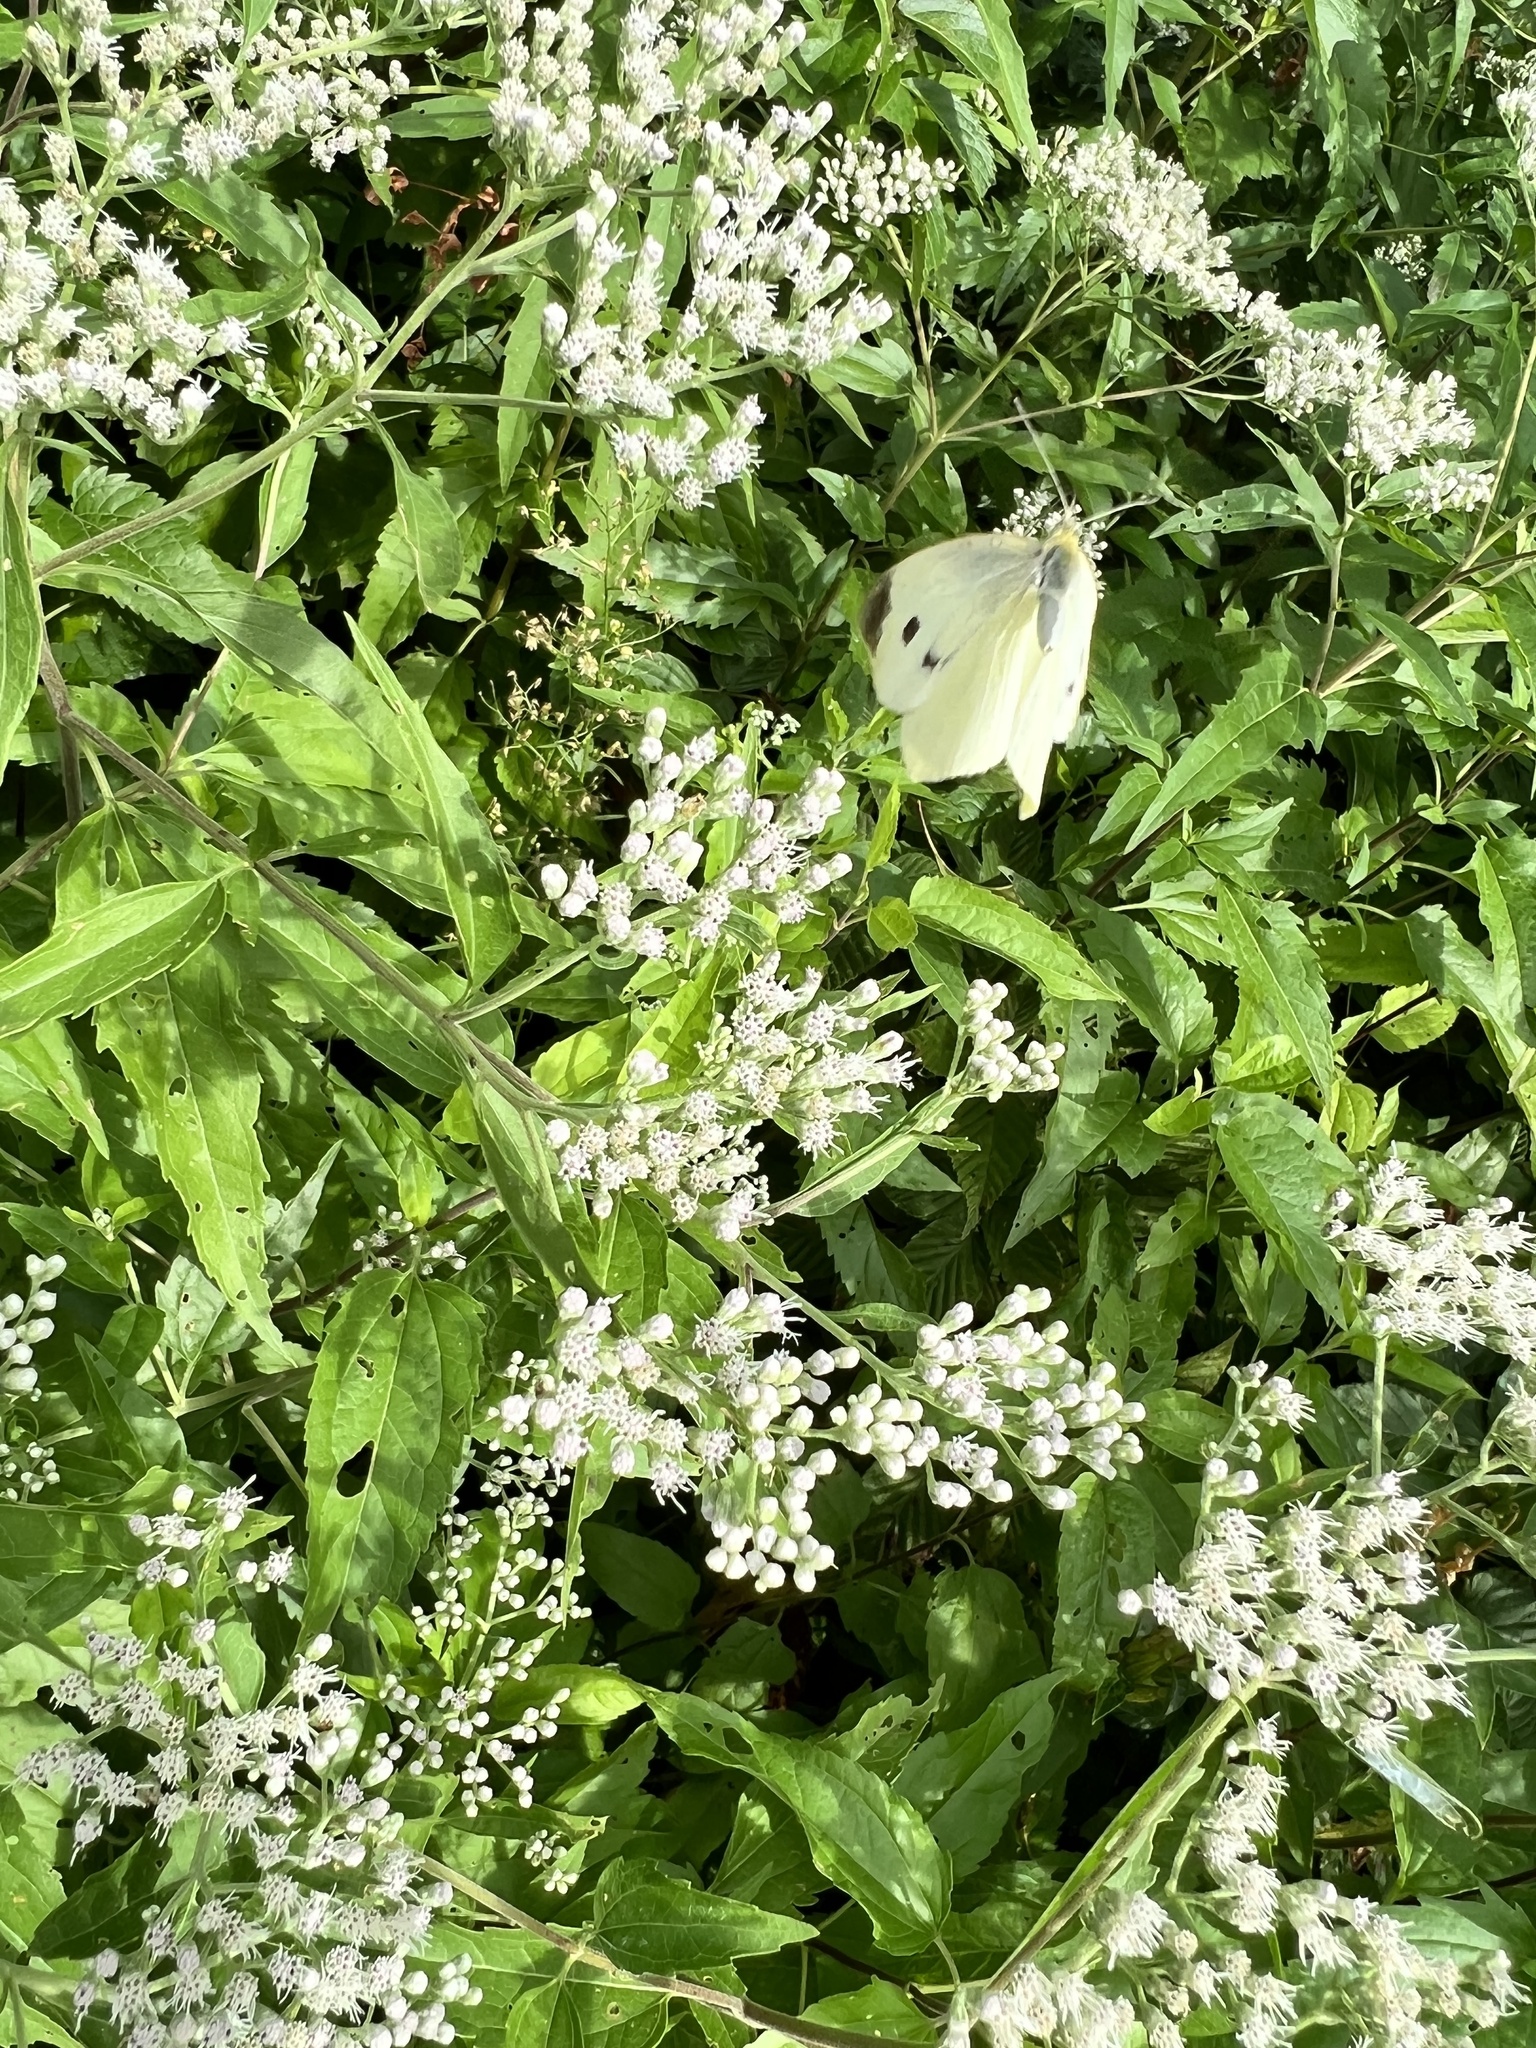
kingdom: Animalia
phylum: Arthropoda
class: Insecta
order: Lepidoptera
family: Pieridae
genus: Pieris
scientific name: Pieris rapae
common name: Small white
